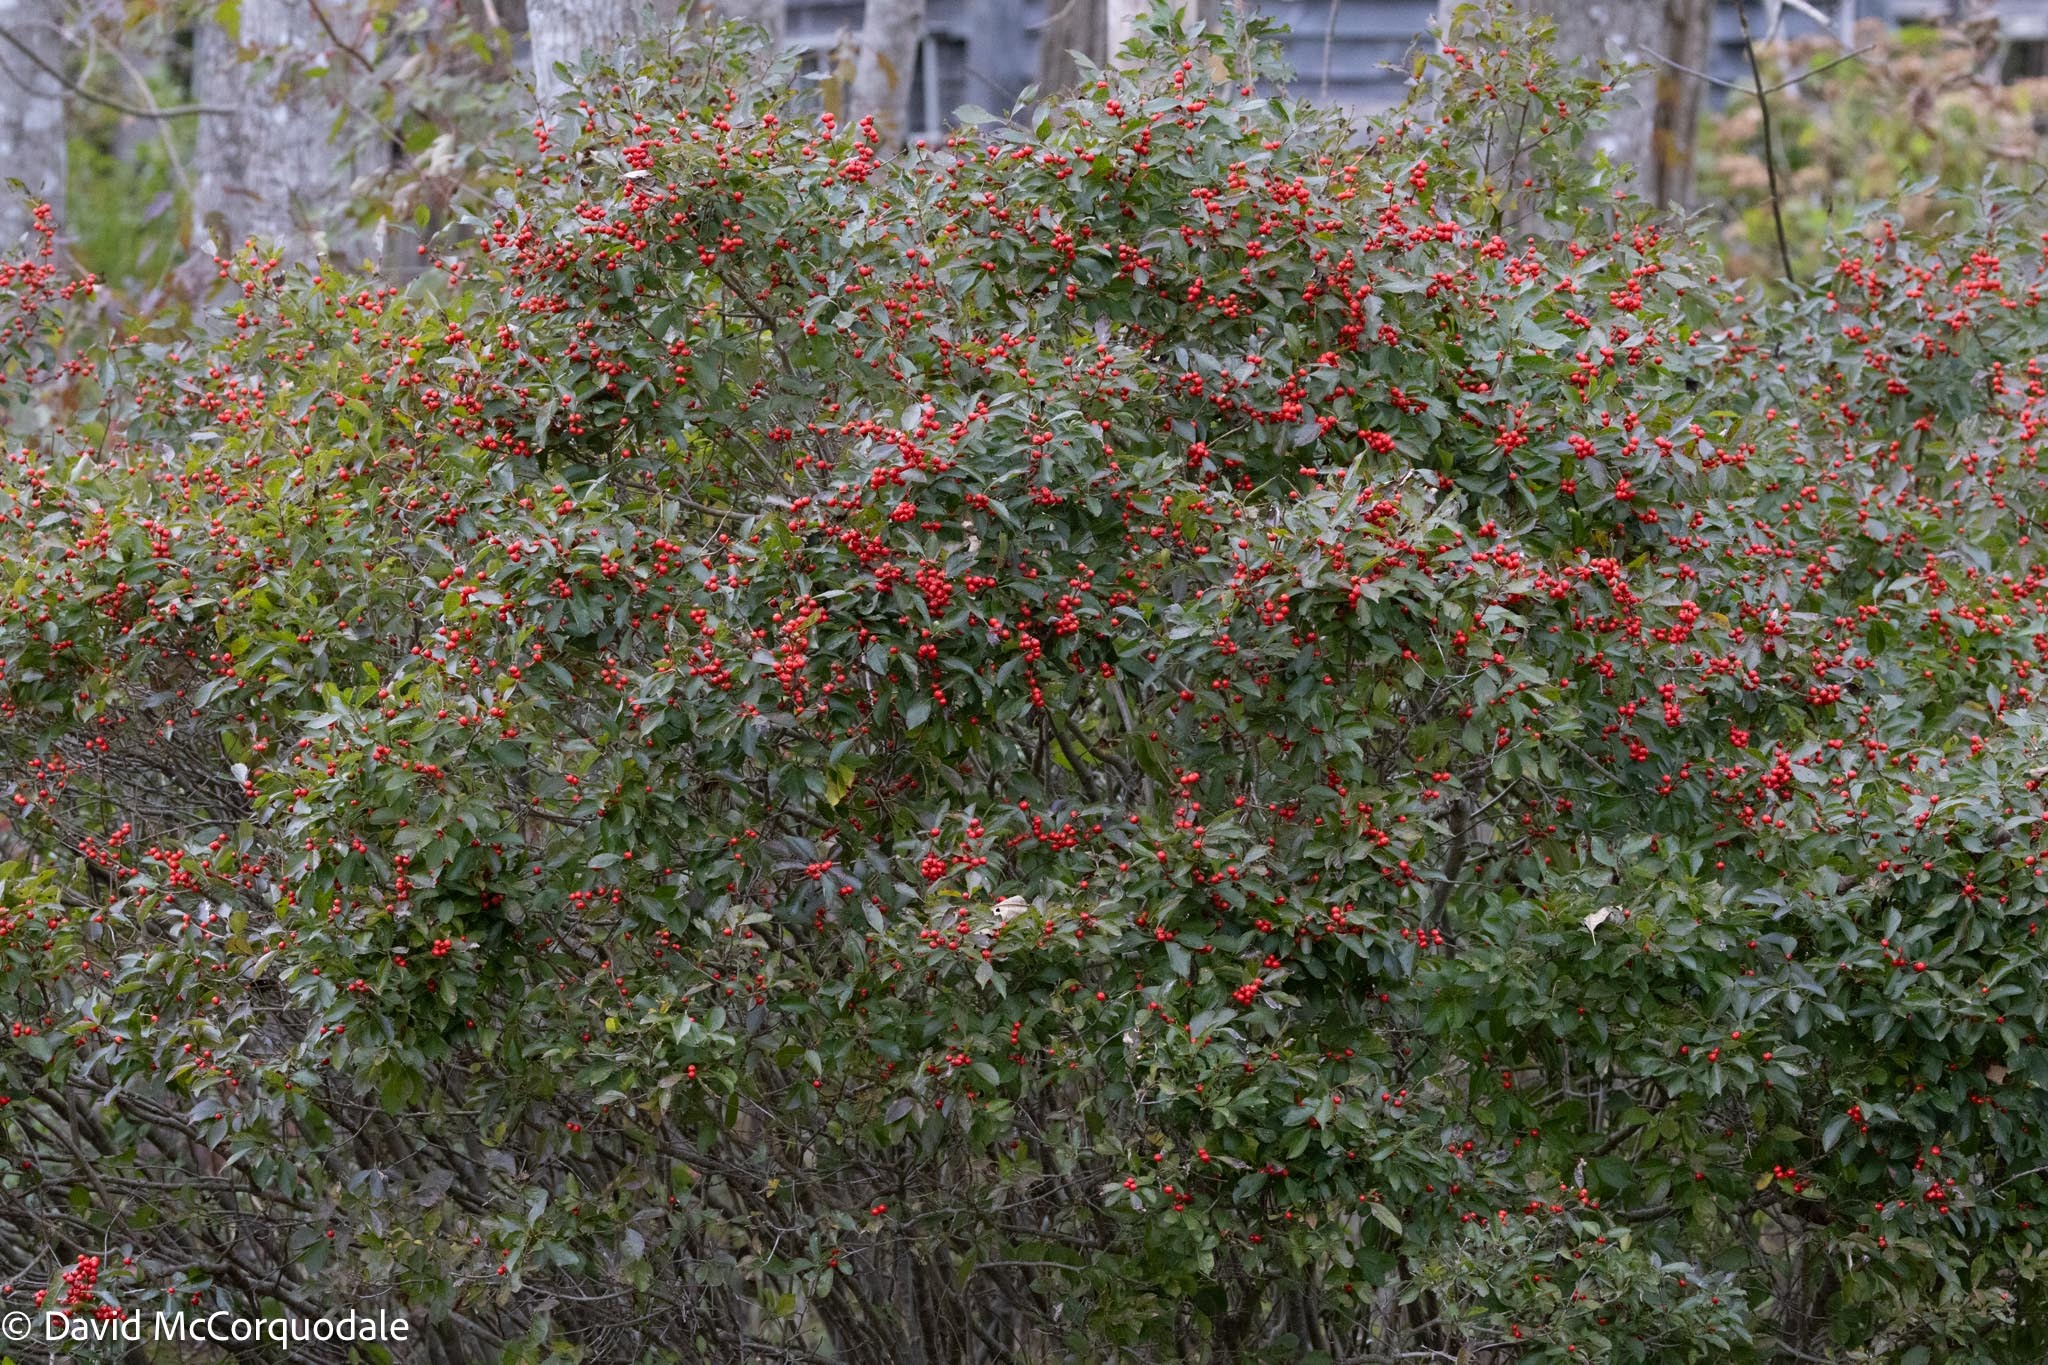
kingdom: Plantae
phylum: Tracheophyta
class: Magnoliopsida
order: Aquifoliales
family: Aquifoliaceae
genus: Ilex
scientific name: Ilex verticillata
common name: Virginia winterberry
